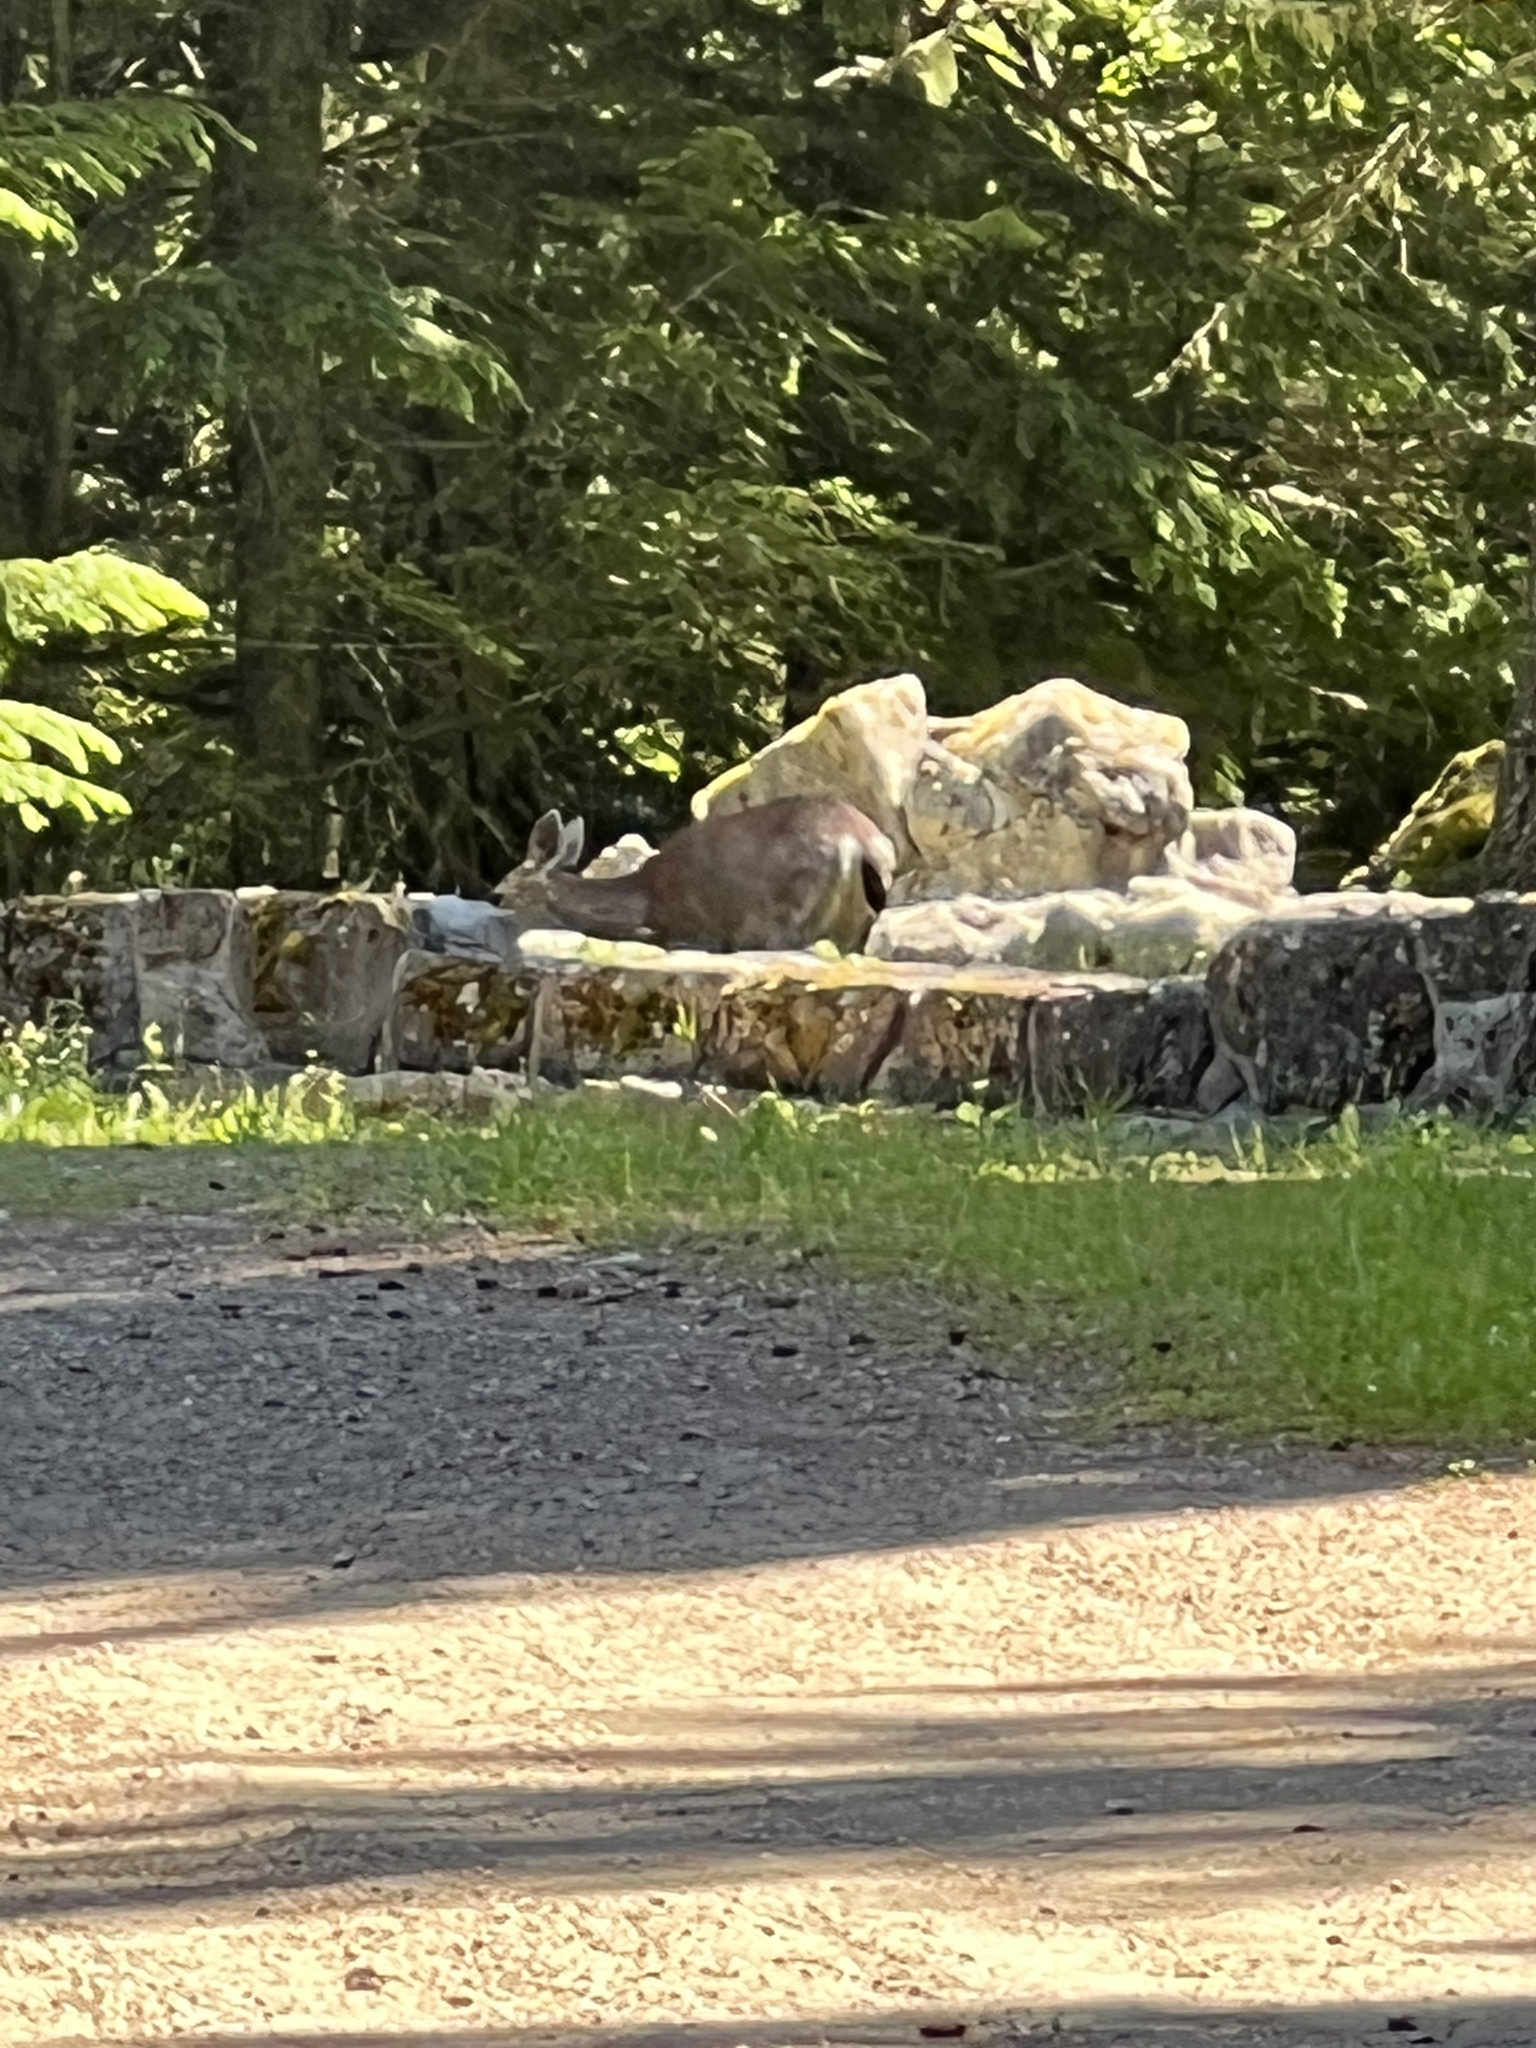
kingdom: Animalia
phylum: Chordata
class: Mammalia
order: Artiodactyla
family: Cervidae
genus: Odocoileus
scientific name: Odocoileus hemionus
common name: Mule deer
